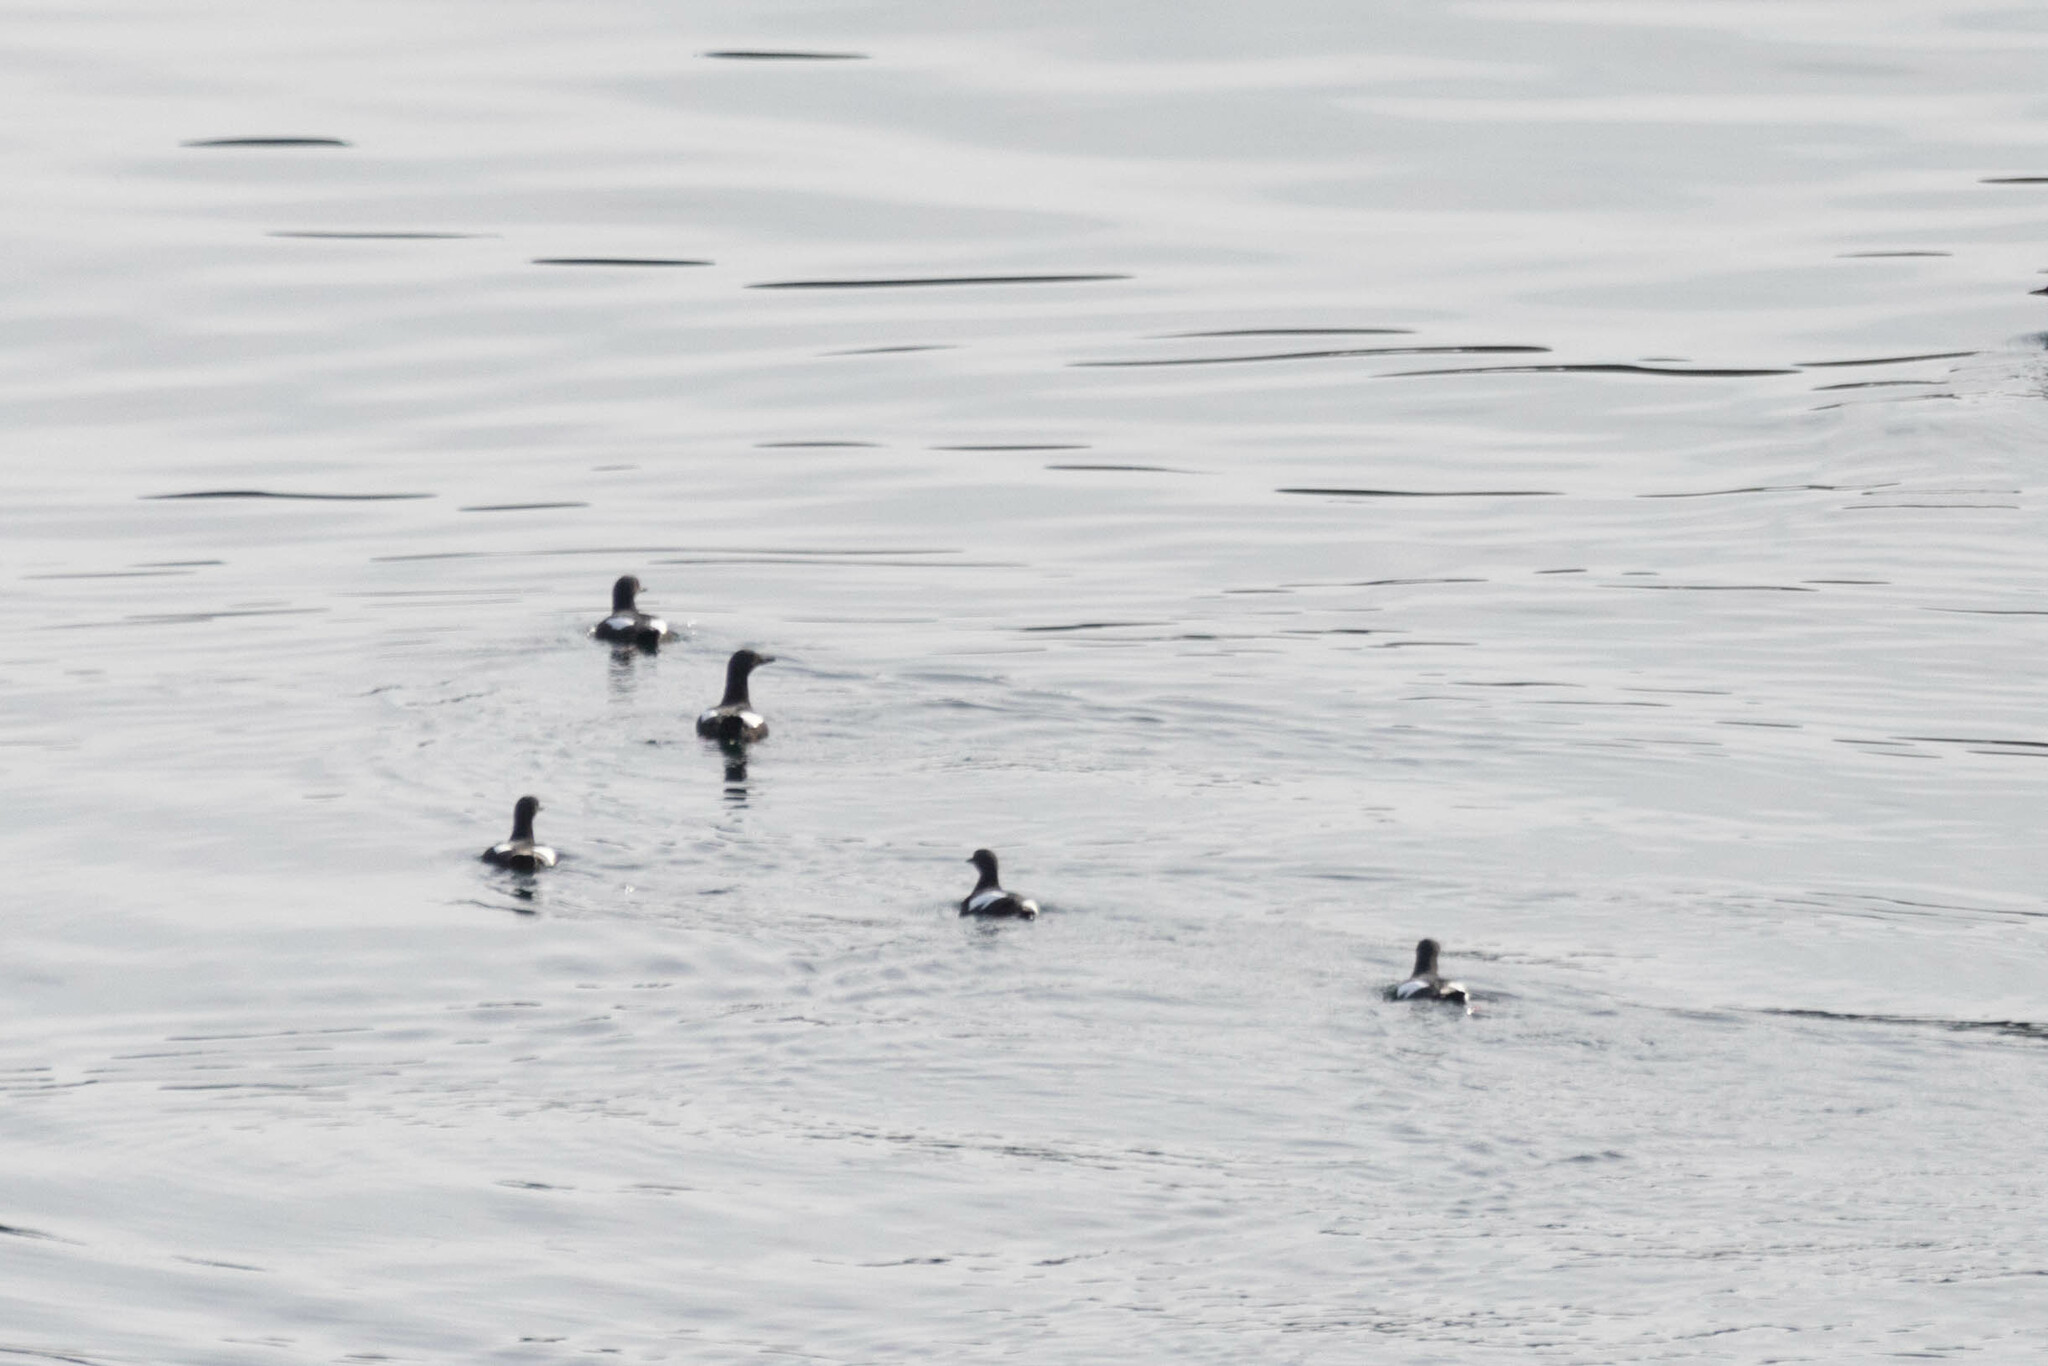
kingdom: Animalia
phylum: Chordata
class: Aves
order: Charadriiformes
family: Alcidae
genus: Cepphus
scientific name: Cepphus columba
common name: Pigeon guillemot
